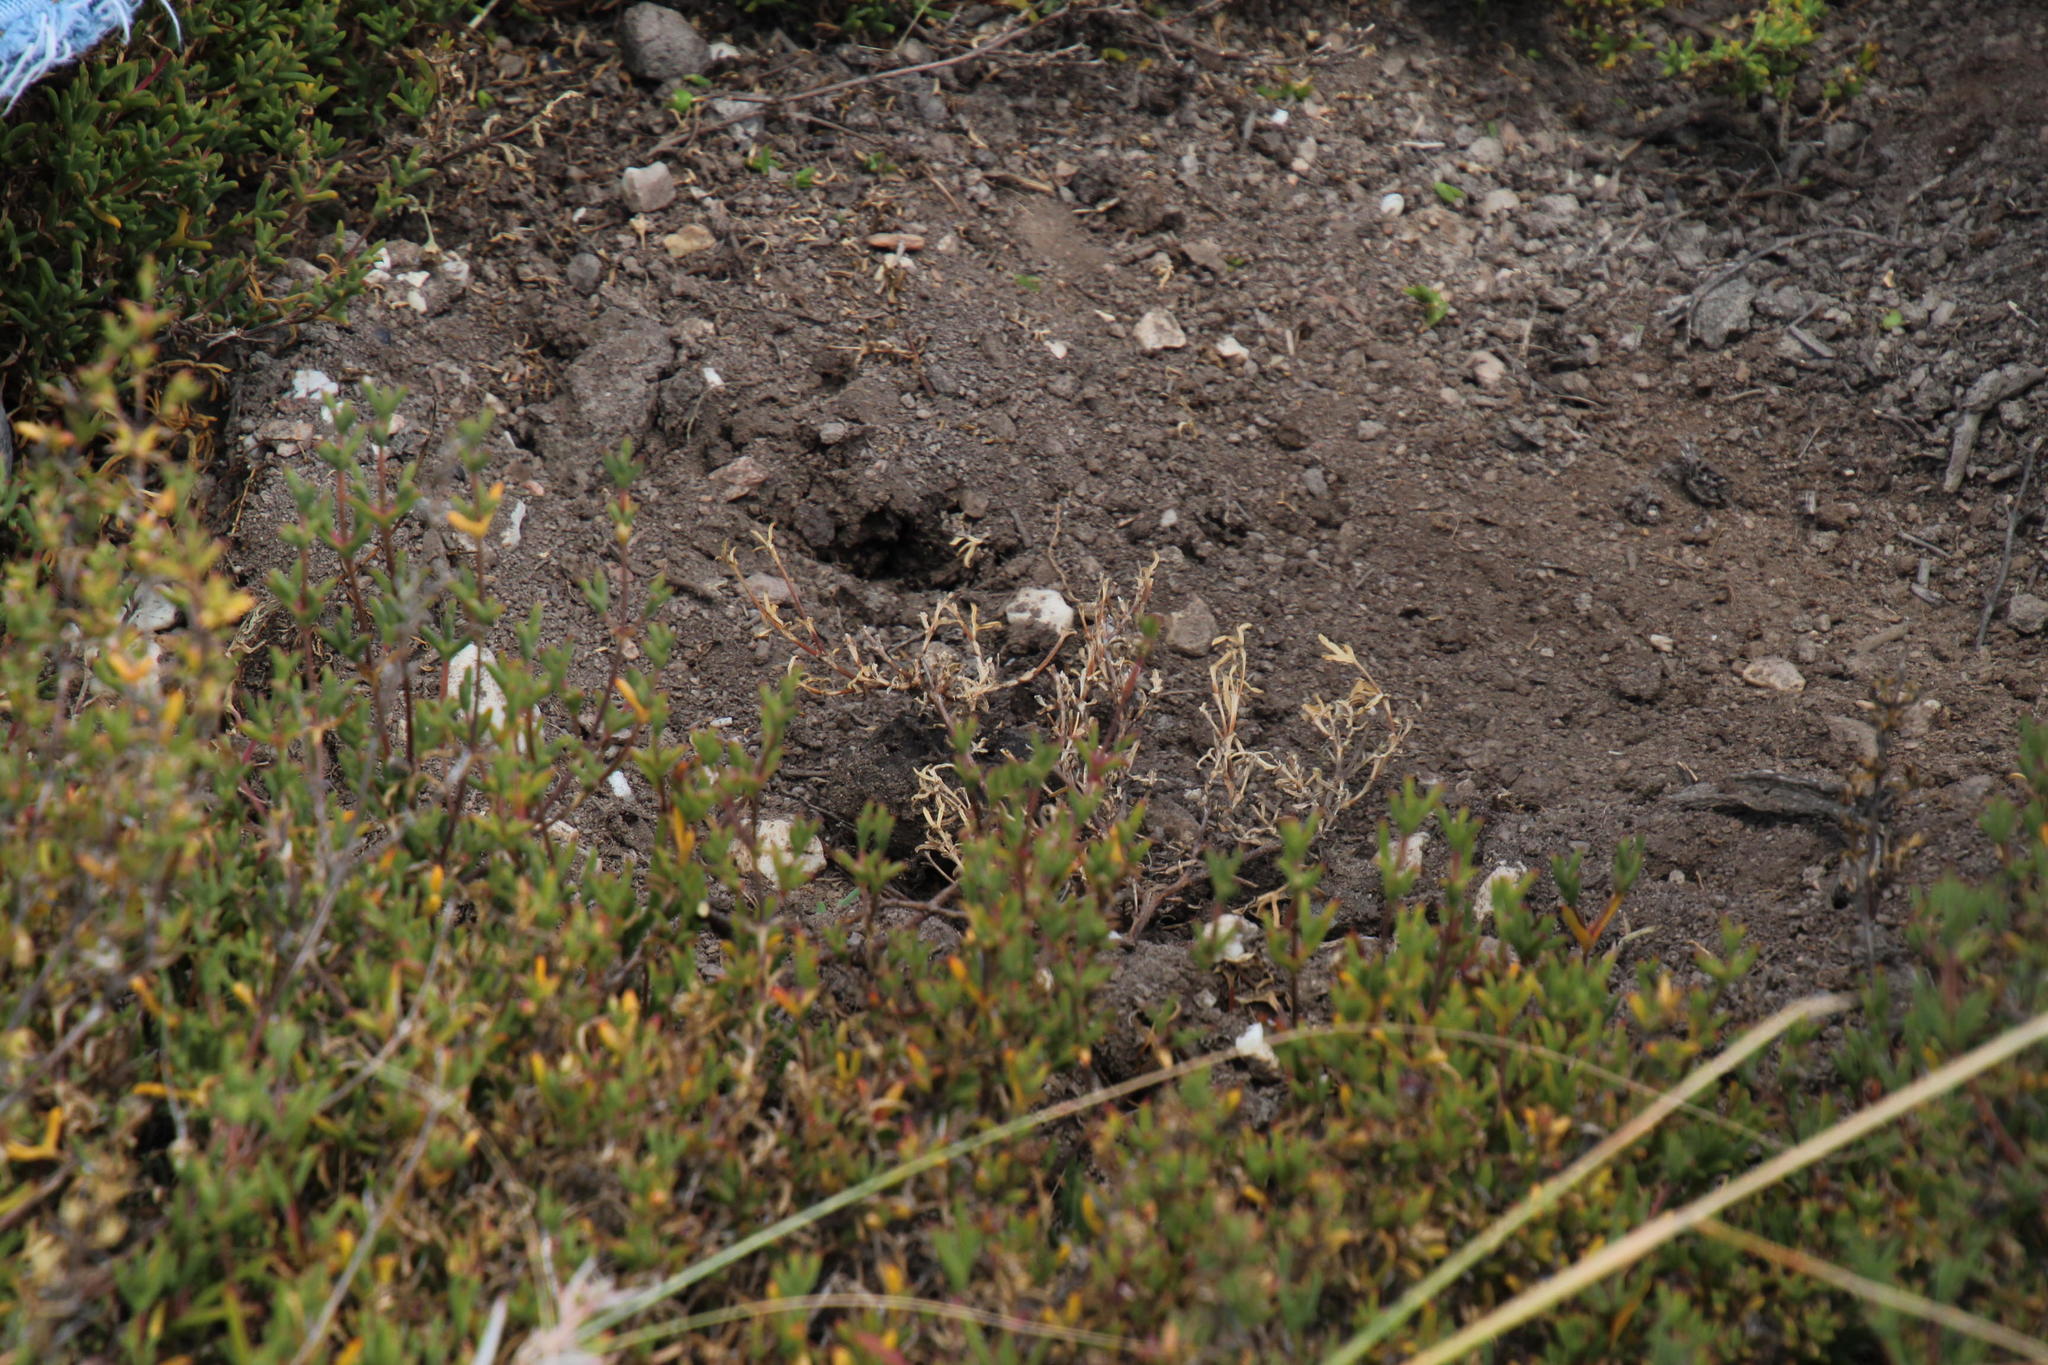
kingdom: Animalia
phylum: Chordata
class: Mammalia
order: Carnivora
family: Hyaenidae
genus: Proteles
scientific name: Proteles cristata
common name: Aardwolf
